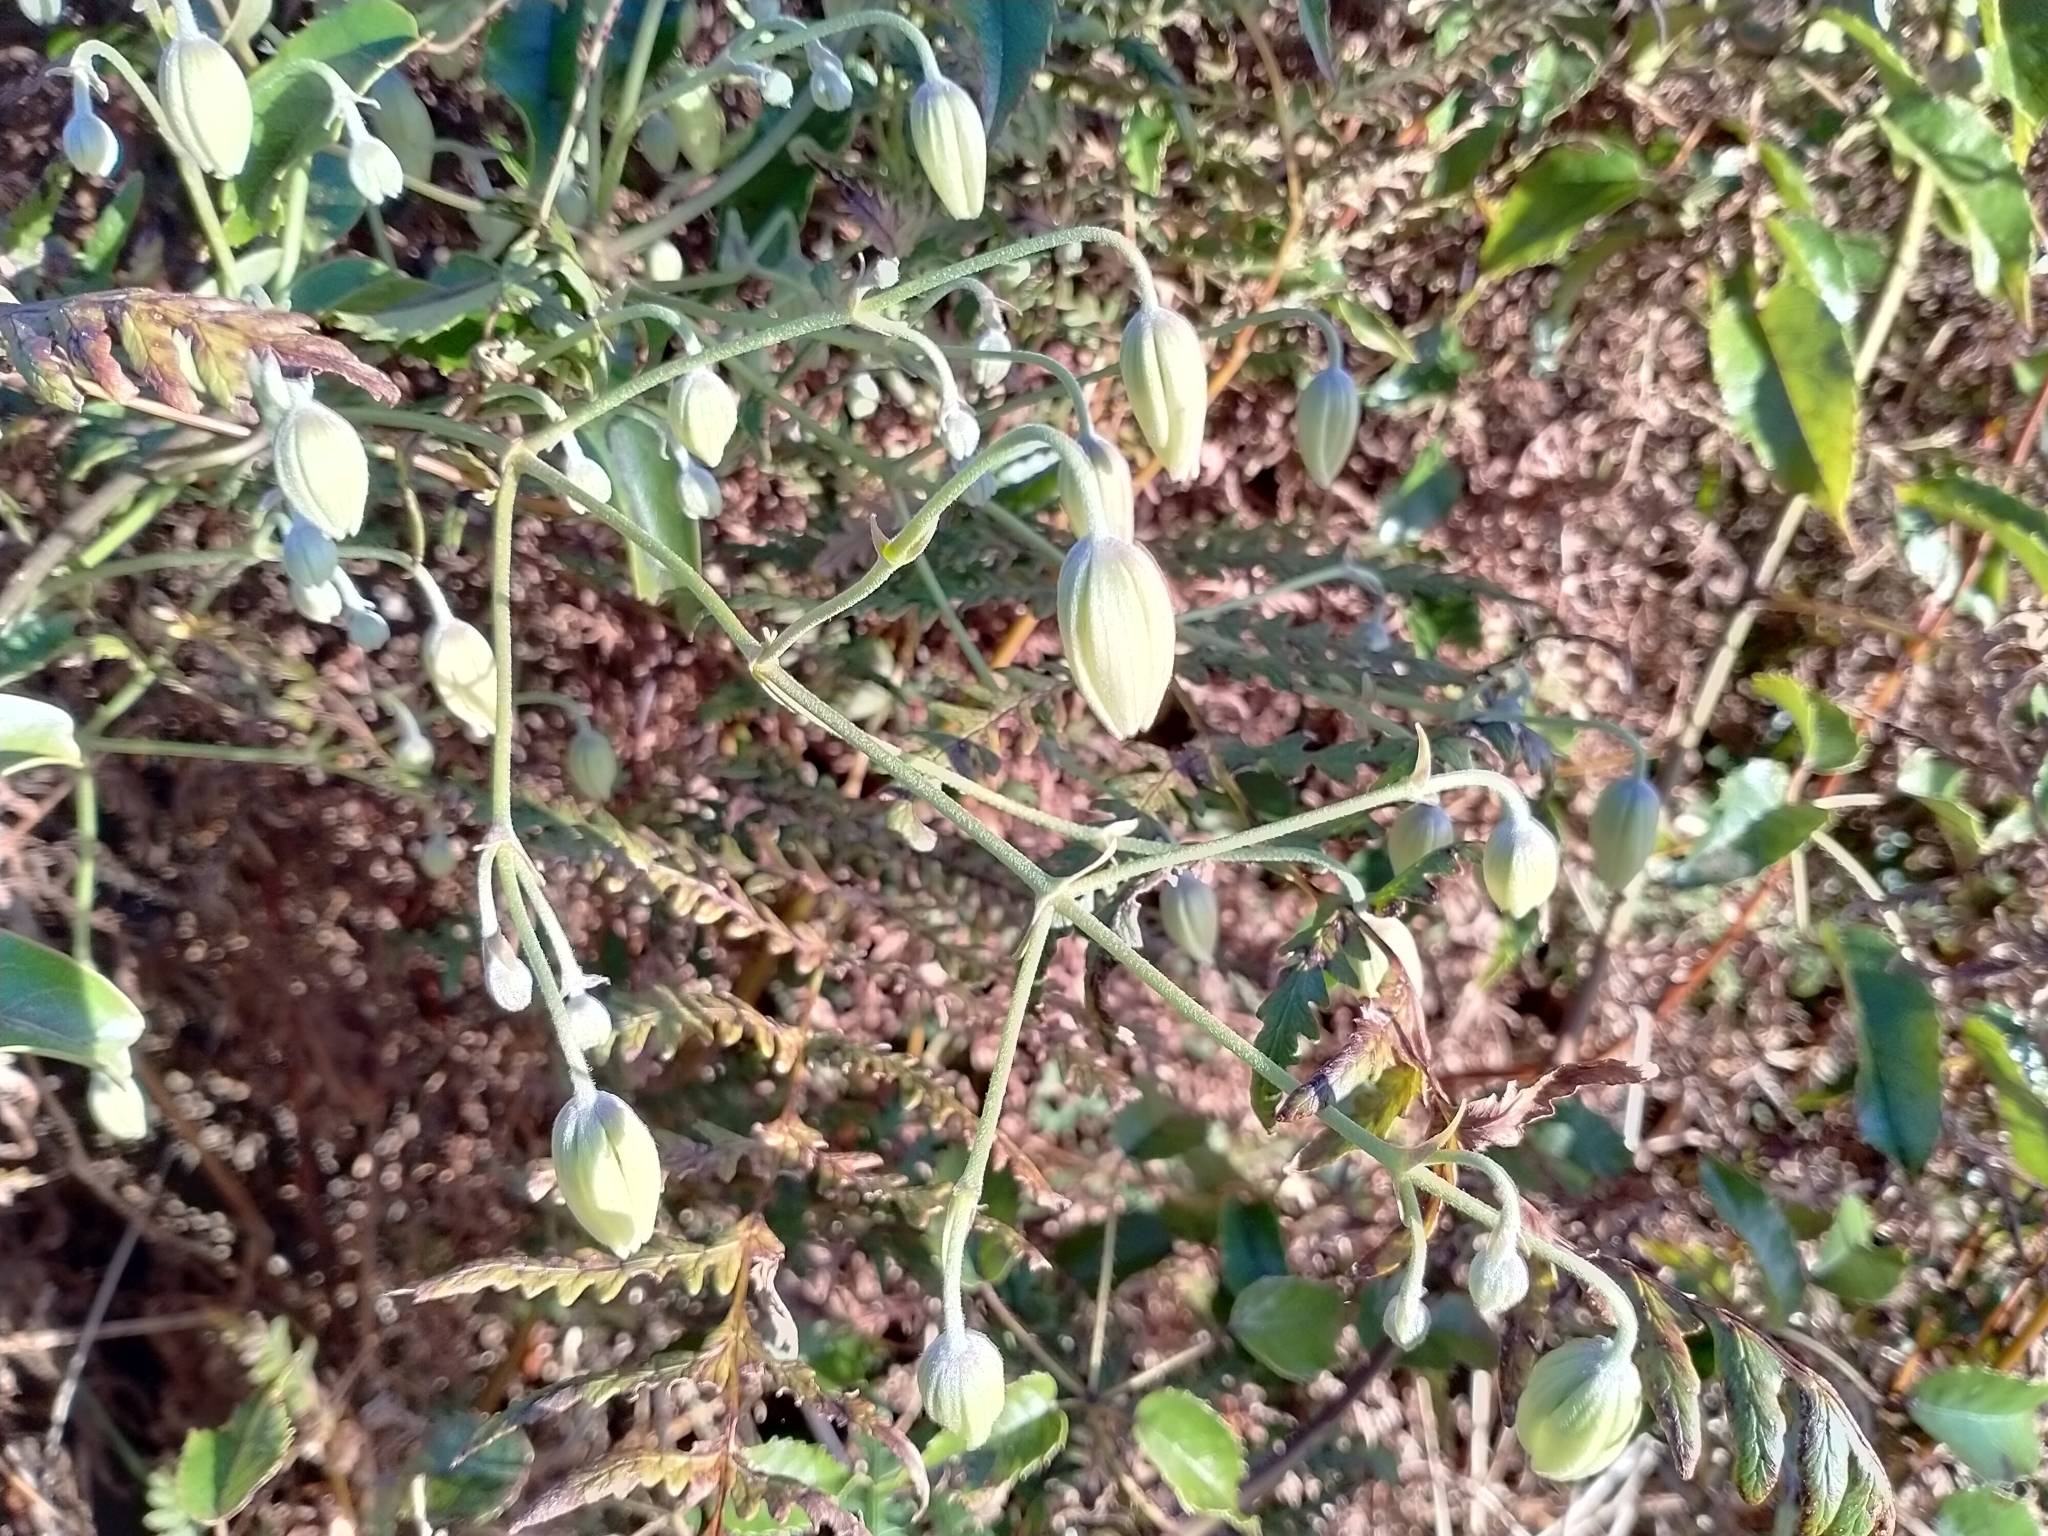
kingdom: Plantae
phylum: Tracheophyta
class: Magnoliopsida
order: Ranunculales
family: Ranunculaceae
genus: Clematis
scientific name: Clematis paniculata
